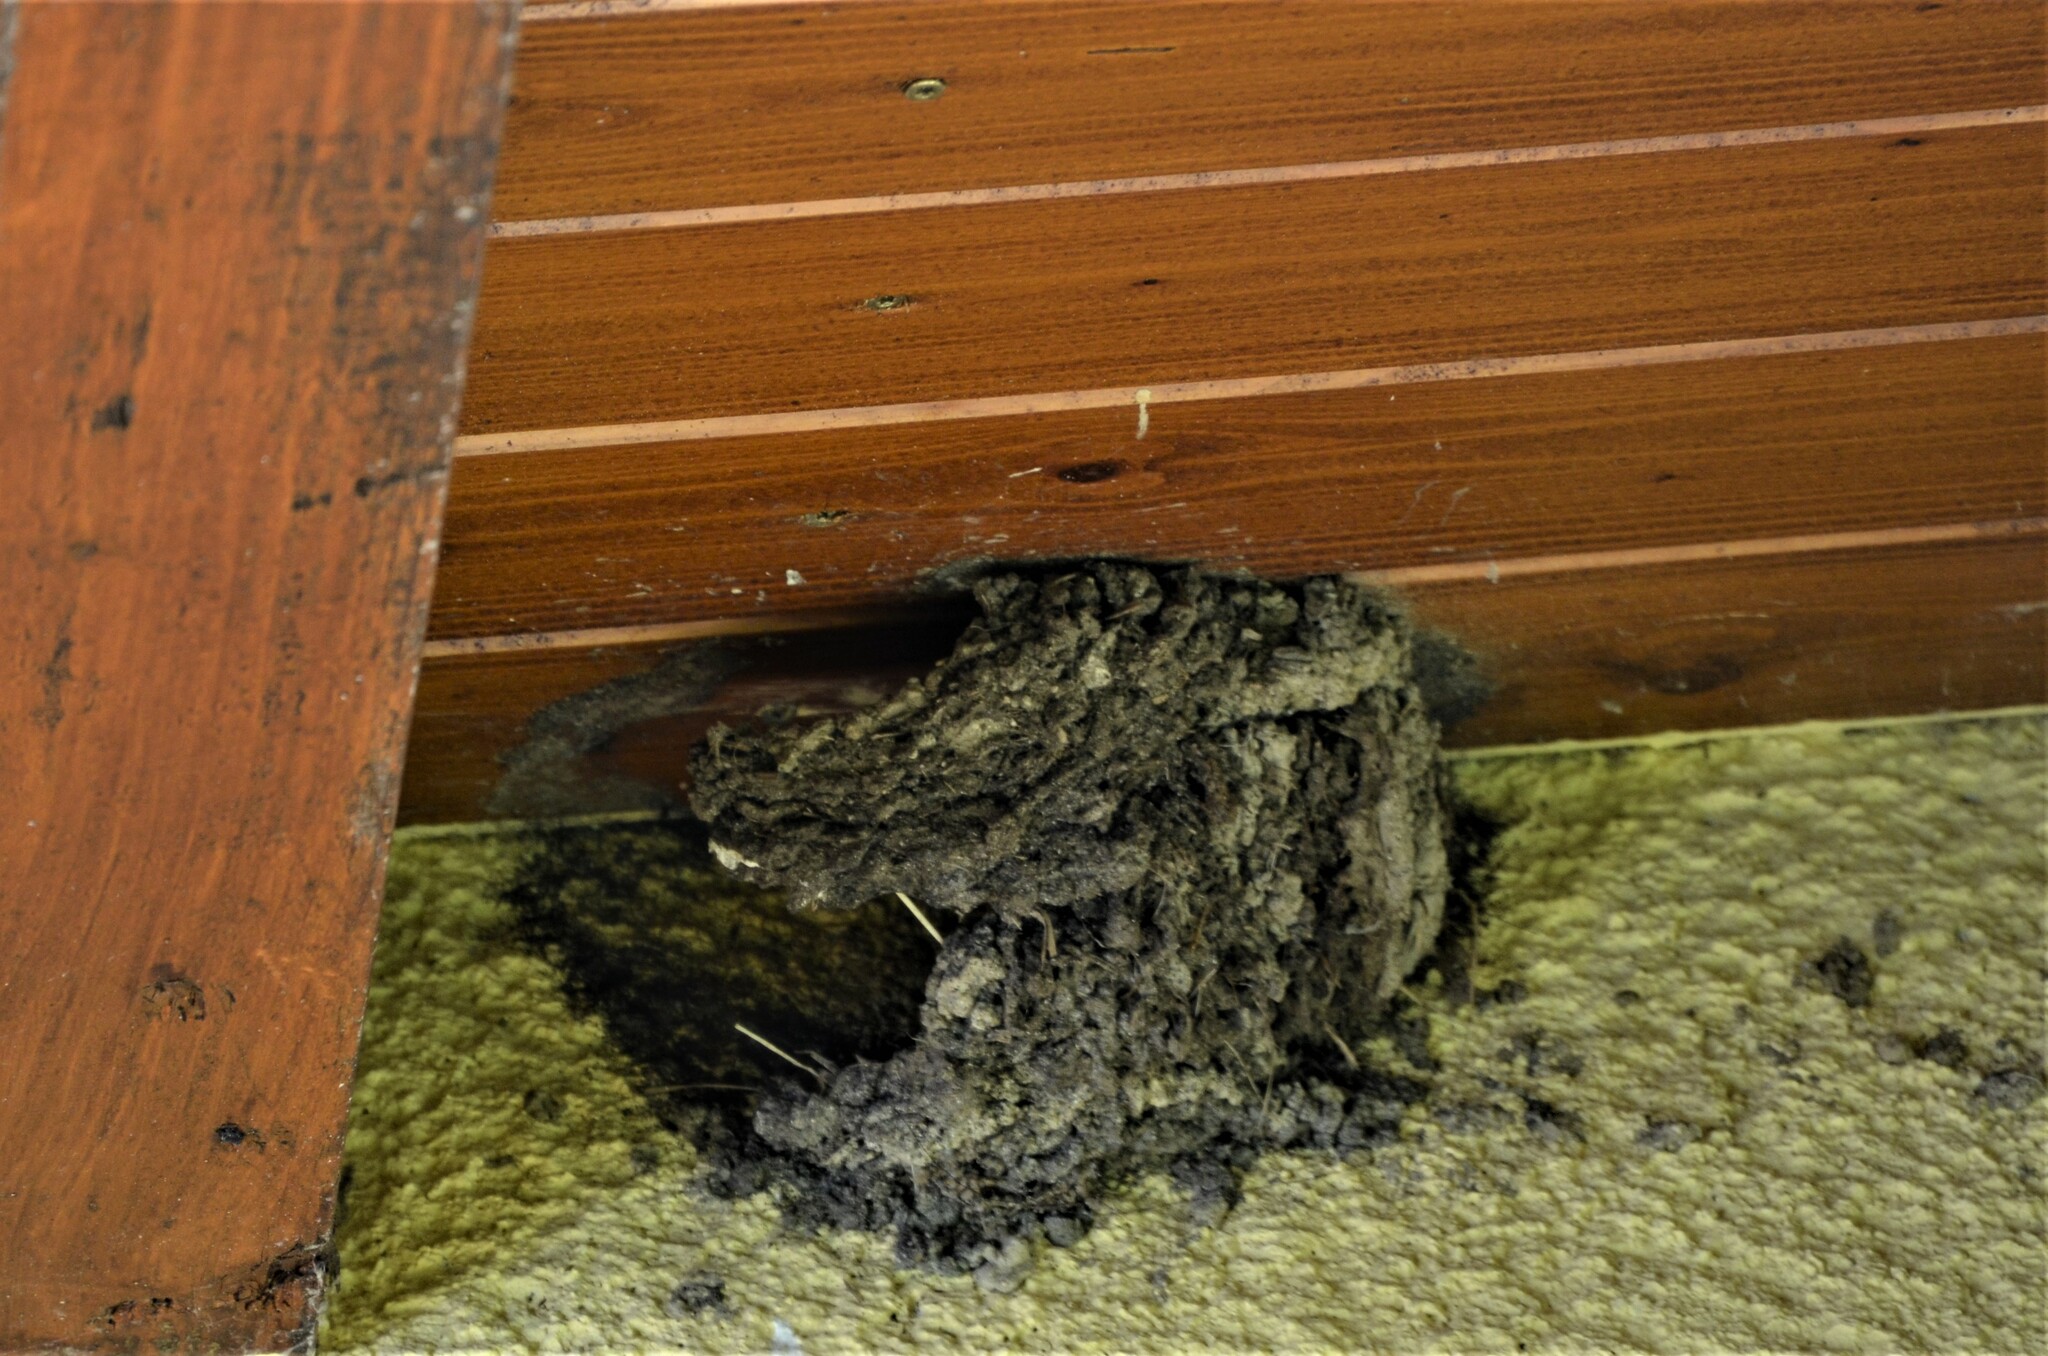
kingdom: Animalia
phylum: Chordata
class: Aves
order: Passeriformes
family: Hirundinidae
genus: Delichon
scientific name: Delichon urbicum
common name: Common house martin
